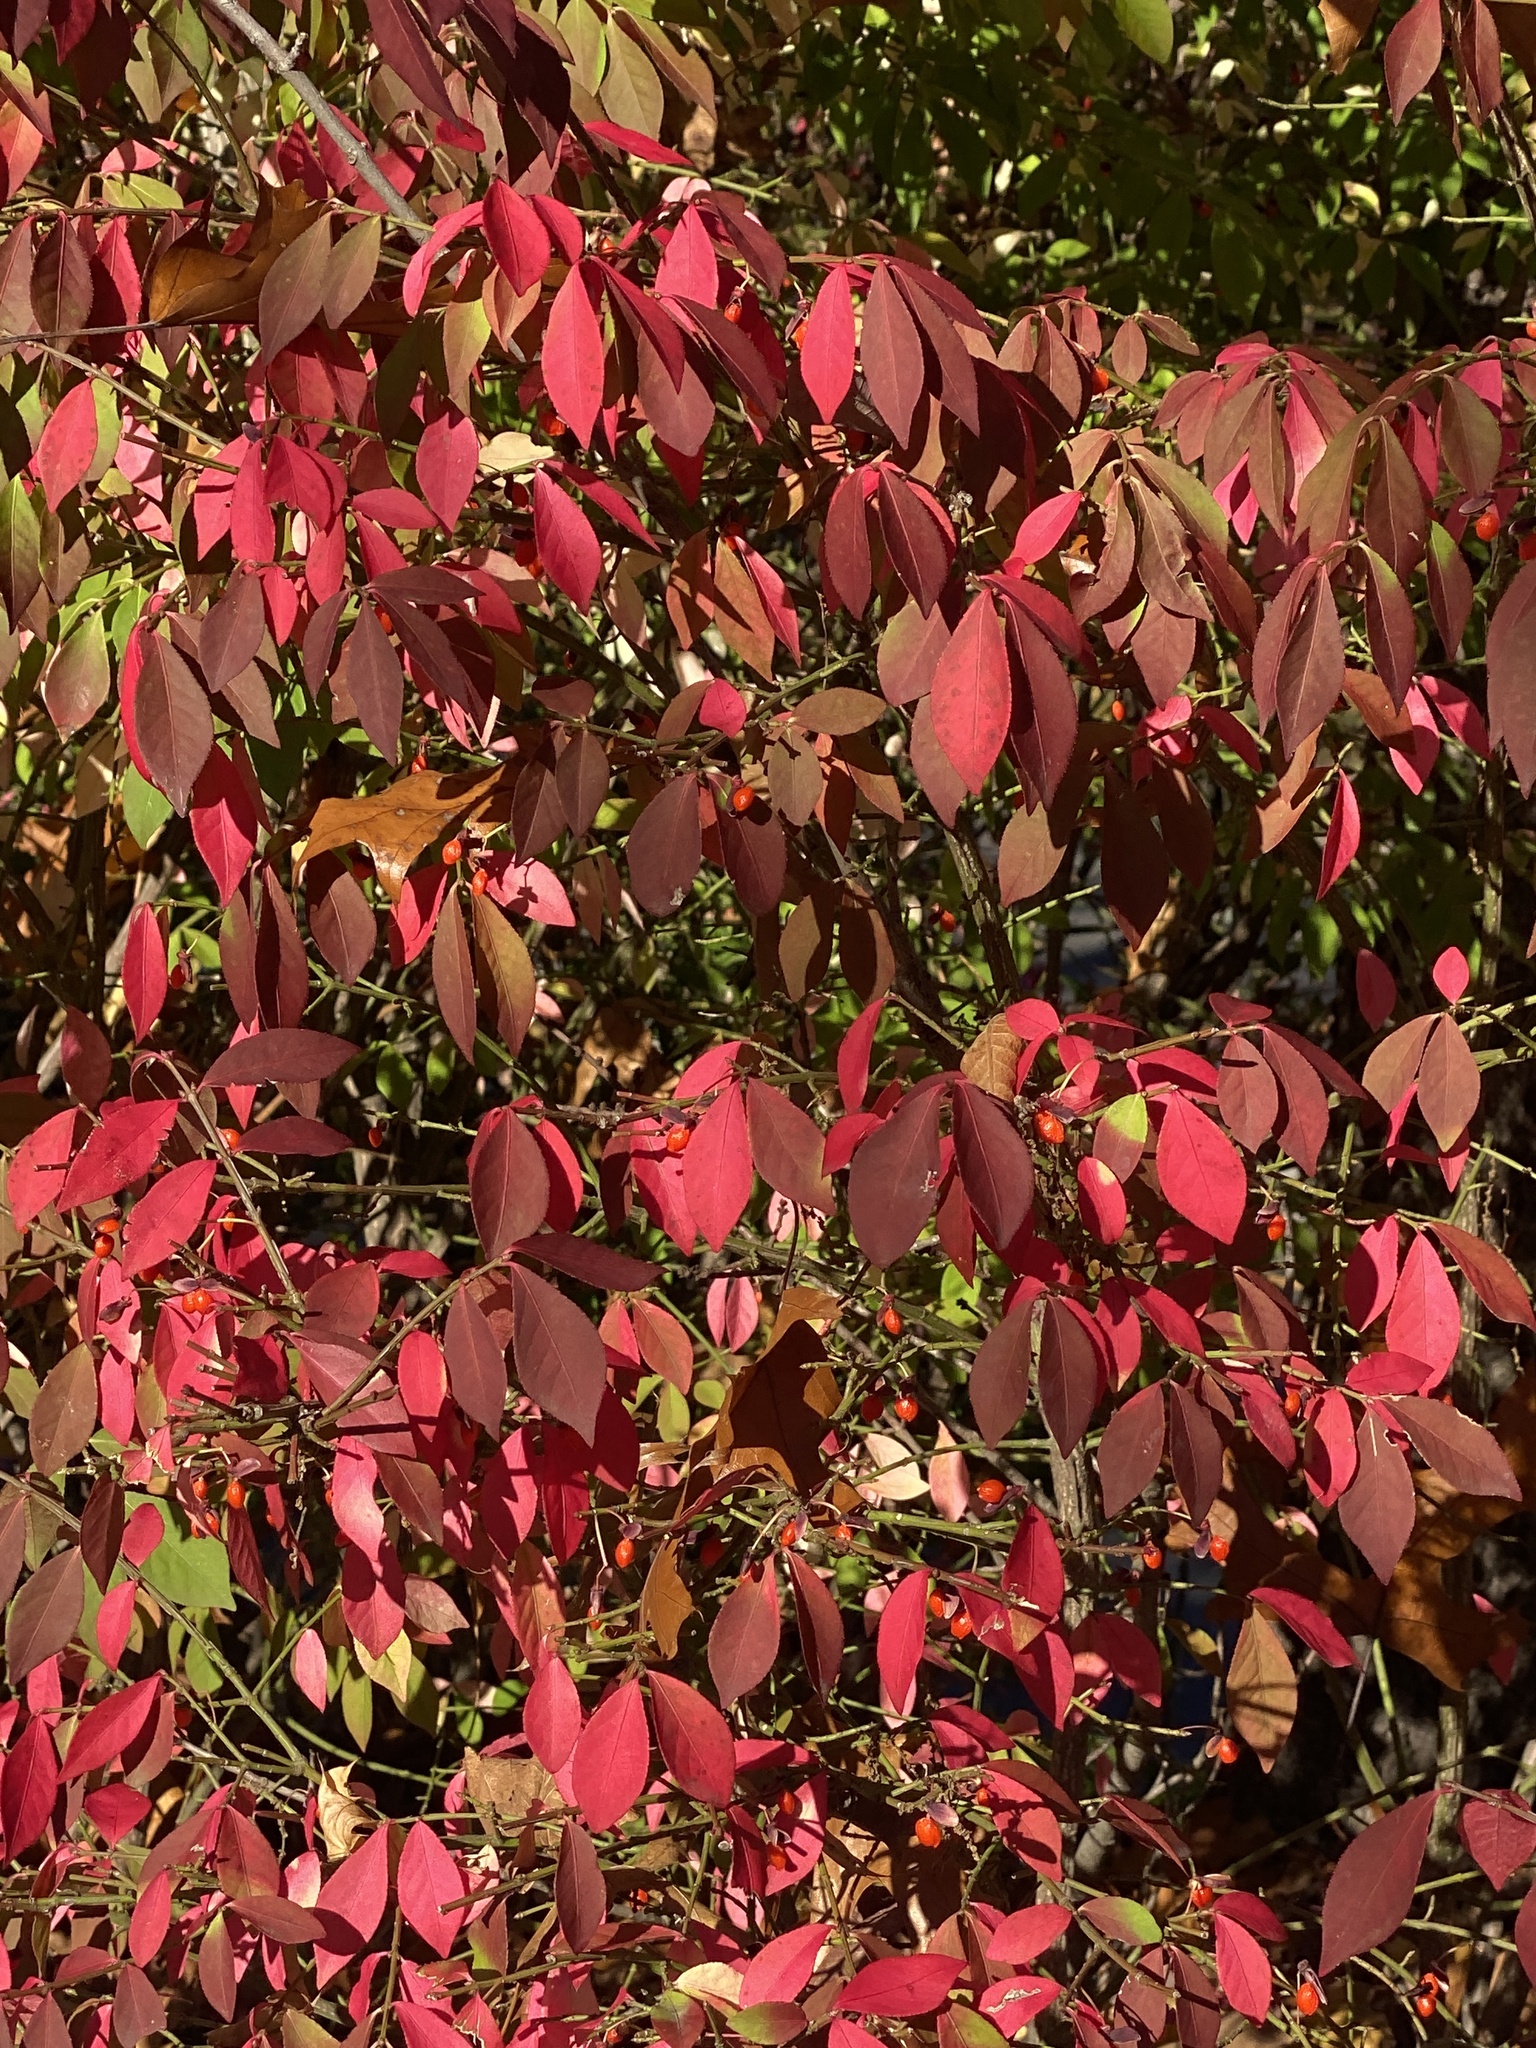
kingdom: Plantae
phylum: Tracheophyta
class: Magnoliopsida
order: Celastrales
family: Celastraceae
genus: Euonymus
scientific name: Euonymus alatus
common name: Winged euonymus
